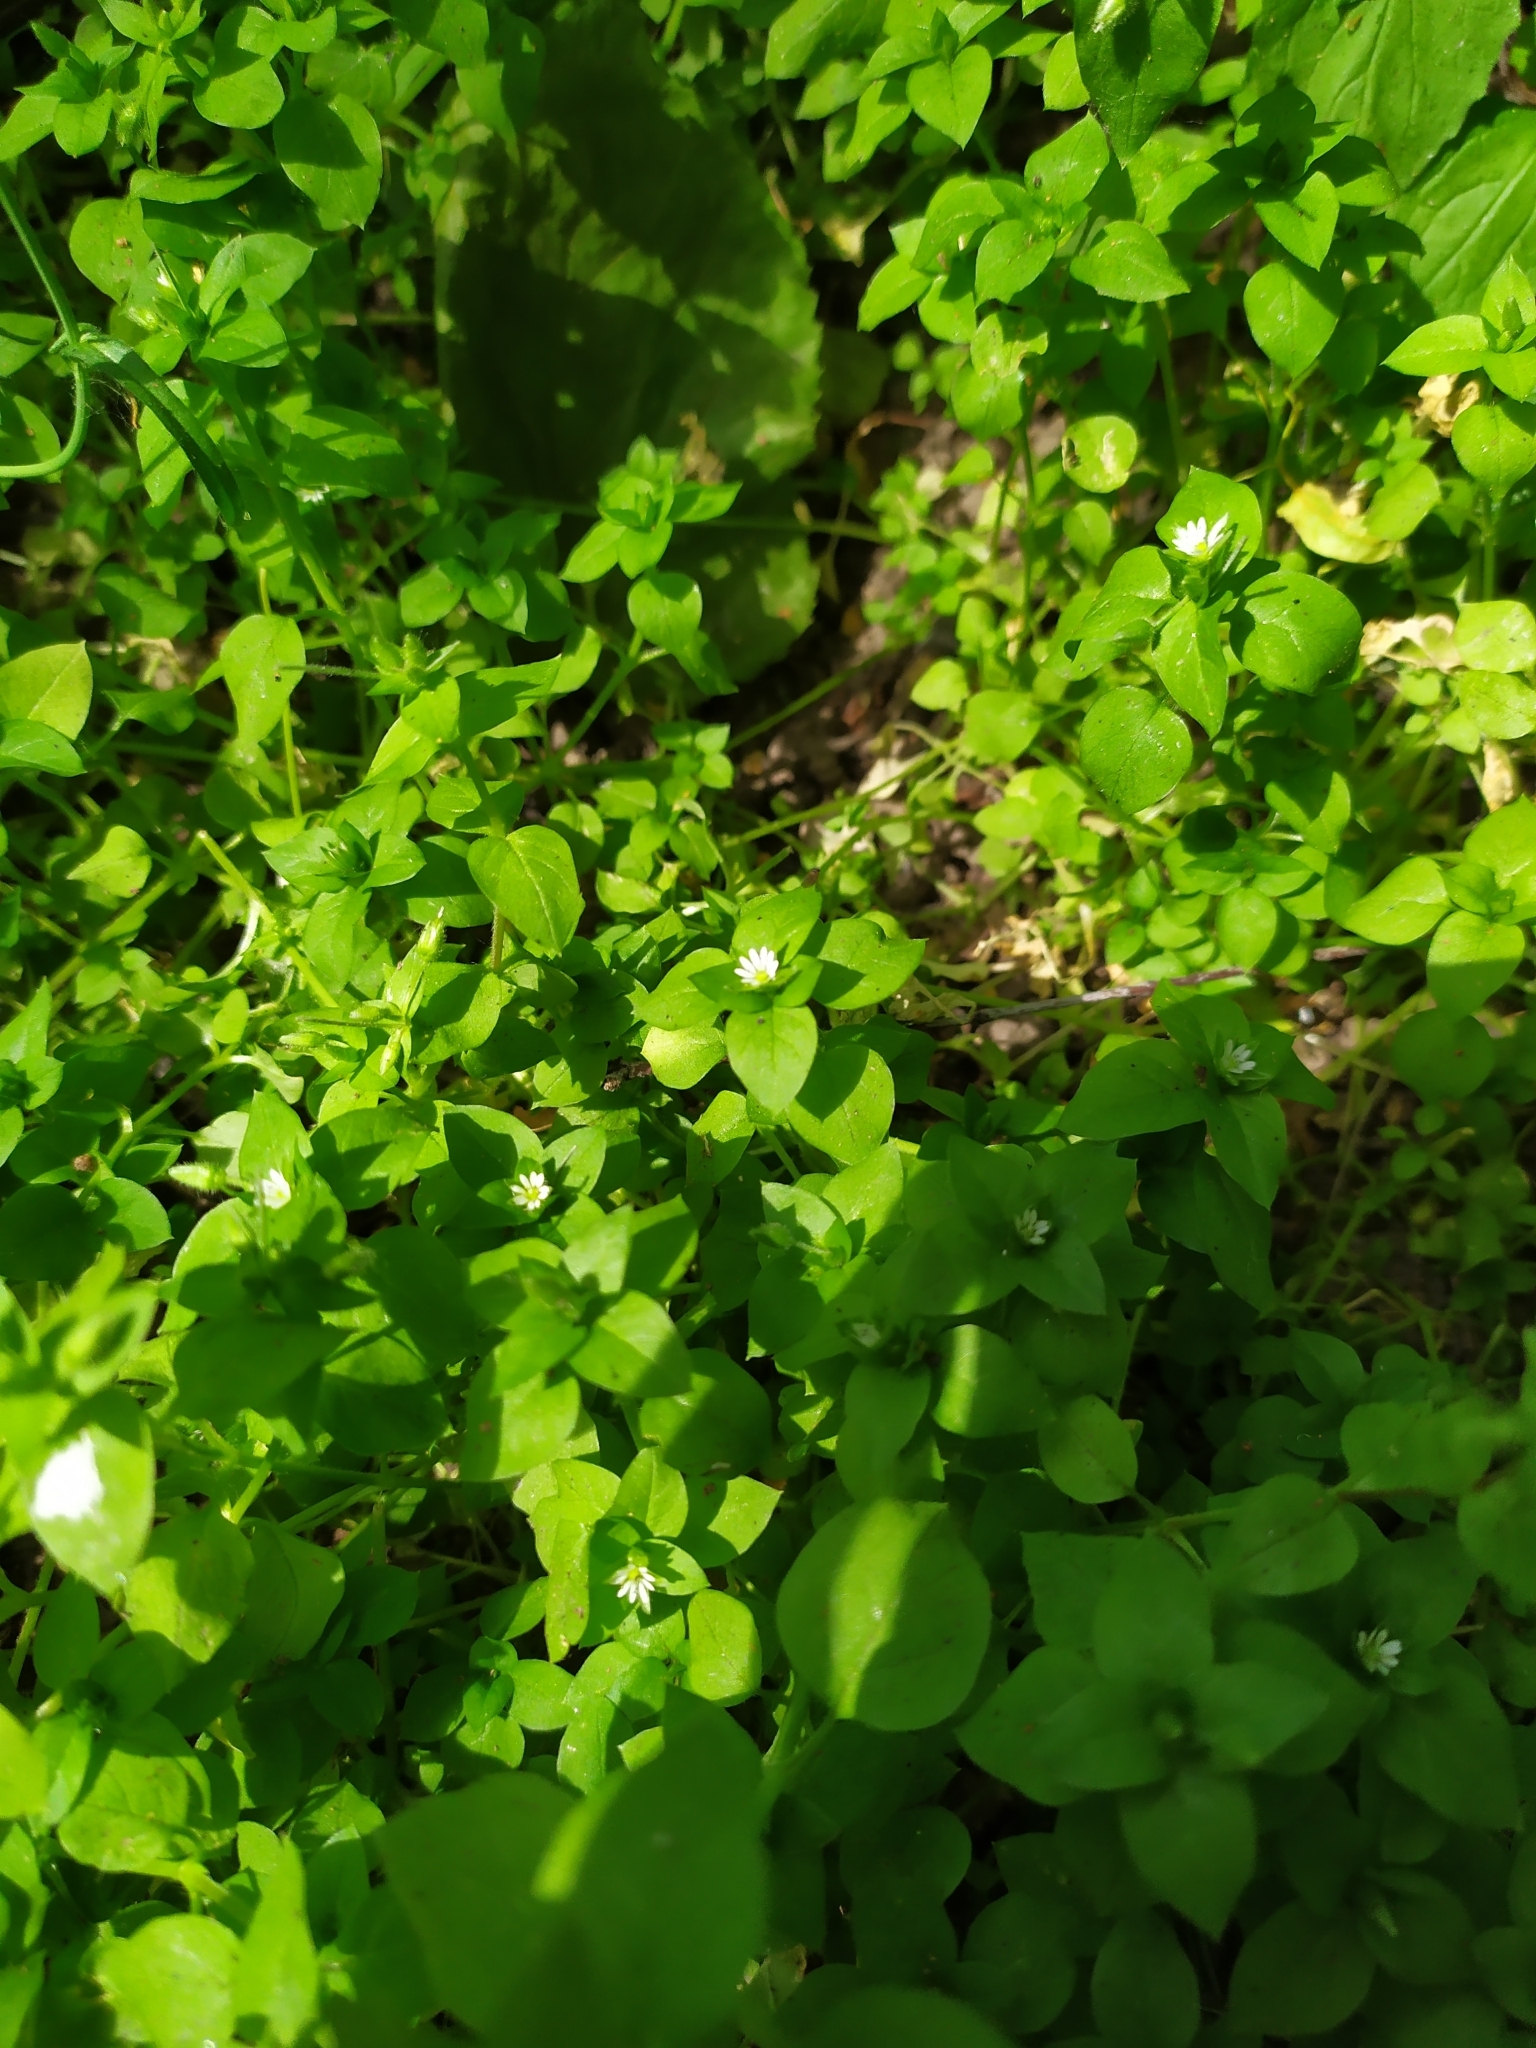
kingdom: Plantae
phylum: Tracheophyta
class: Magnoliopsida
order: Caryophyllales
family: Caryophyllaceae
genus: Stellaria
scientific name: Stellaria media
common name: Common chickweed
